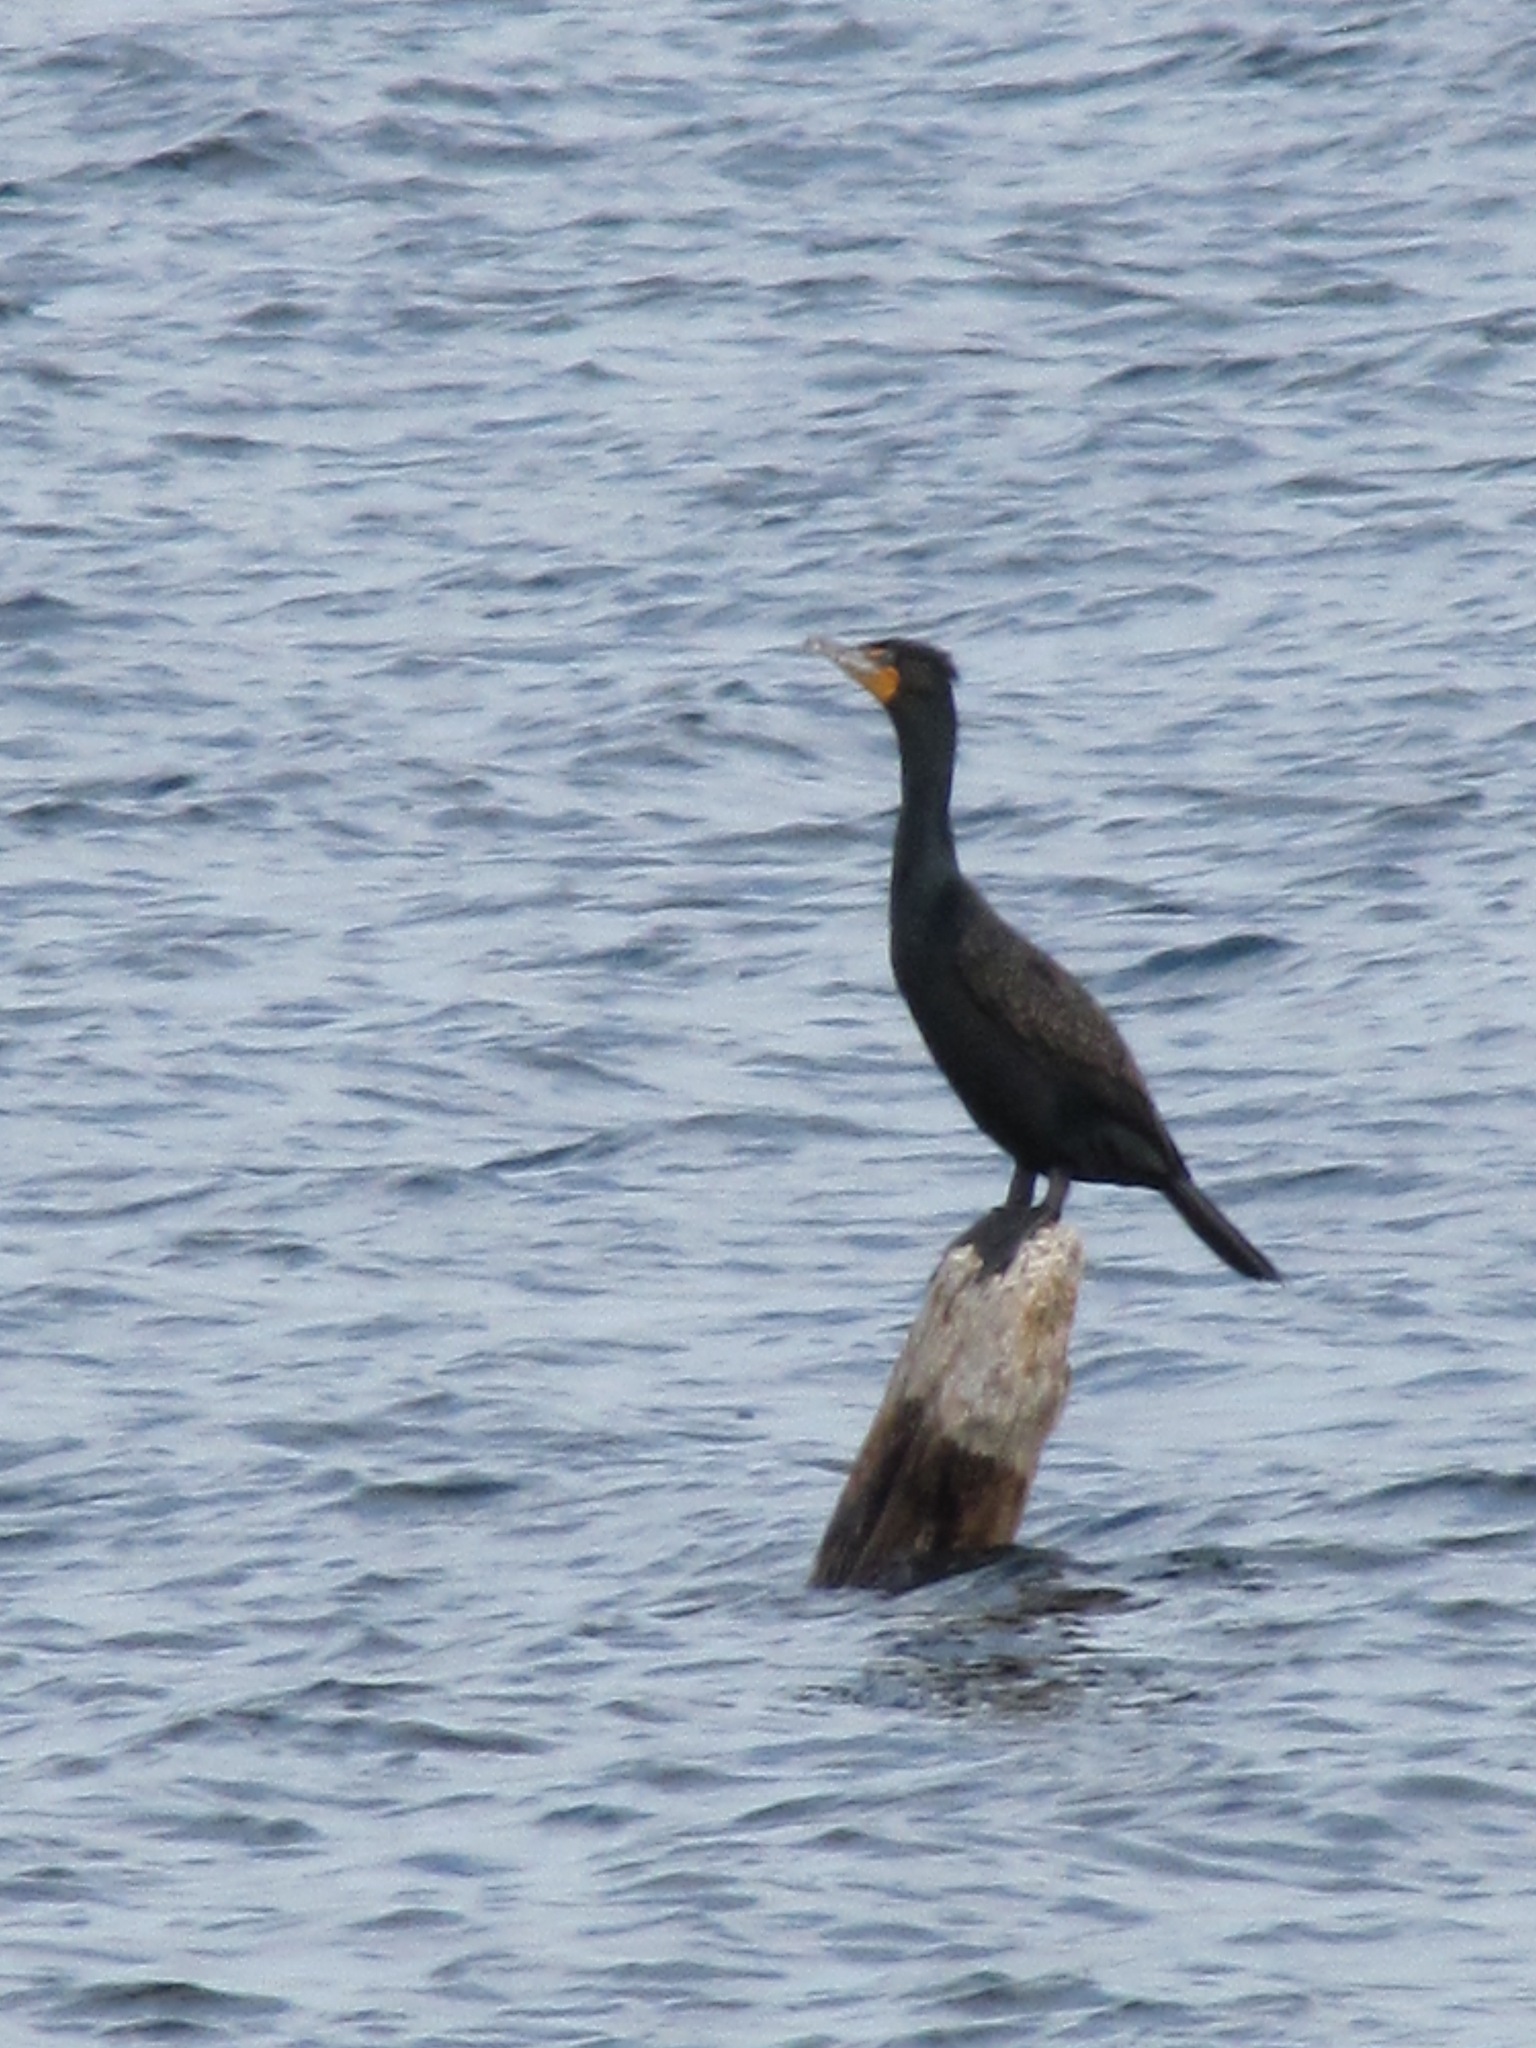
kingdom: Animalia
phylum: Chordata
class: Aves
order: Suliformes
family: Phalacrocoracidae
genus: Phalacrocorax
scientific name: Phalacrocorax auritus
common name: Double-crested cormorant
